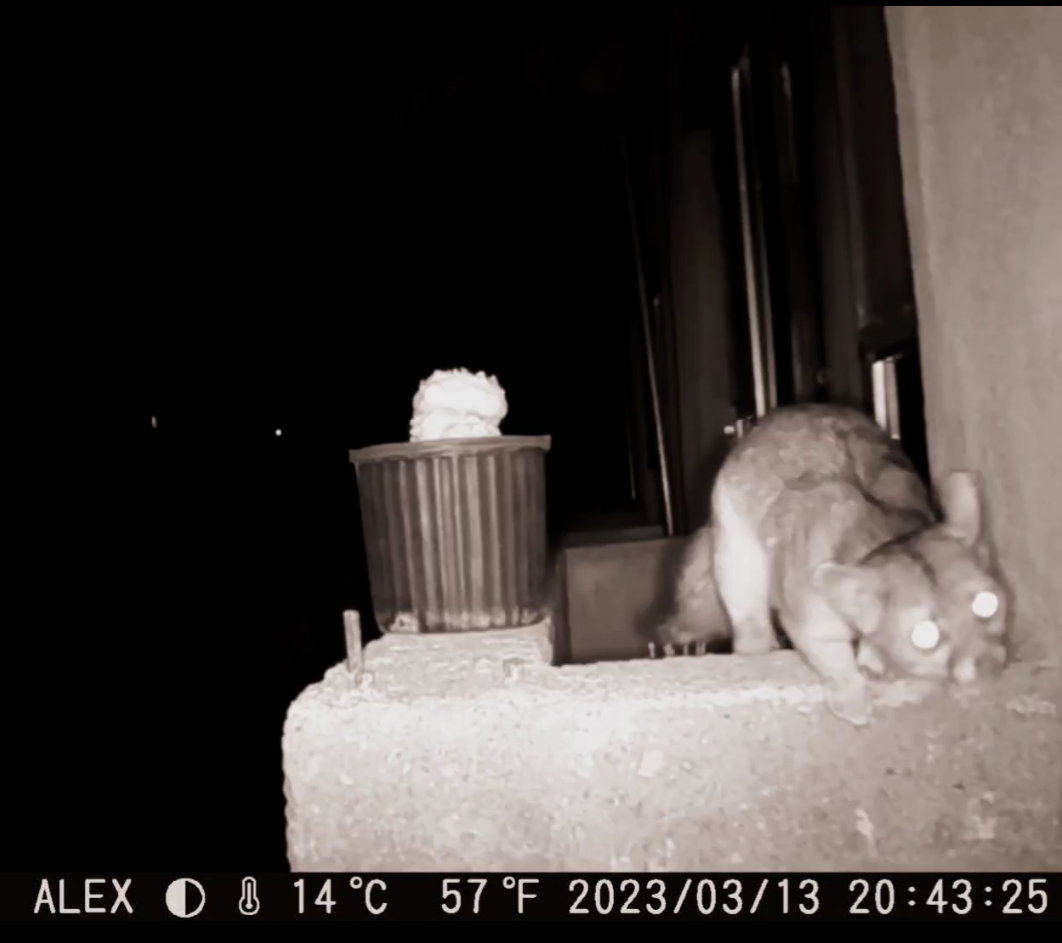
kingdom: Animalia
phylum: Chordata
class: Mammalia
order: Carnivora
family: Procyonidae
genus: Bassariscus
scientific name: Bassariscus astutus
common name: Ringtail
